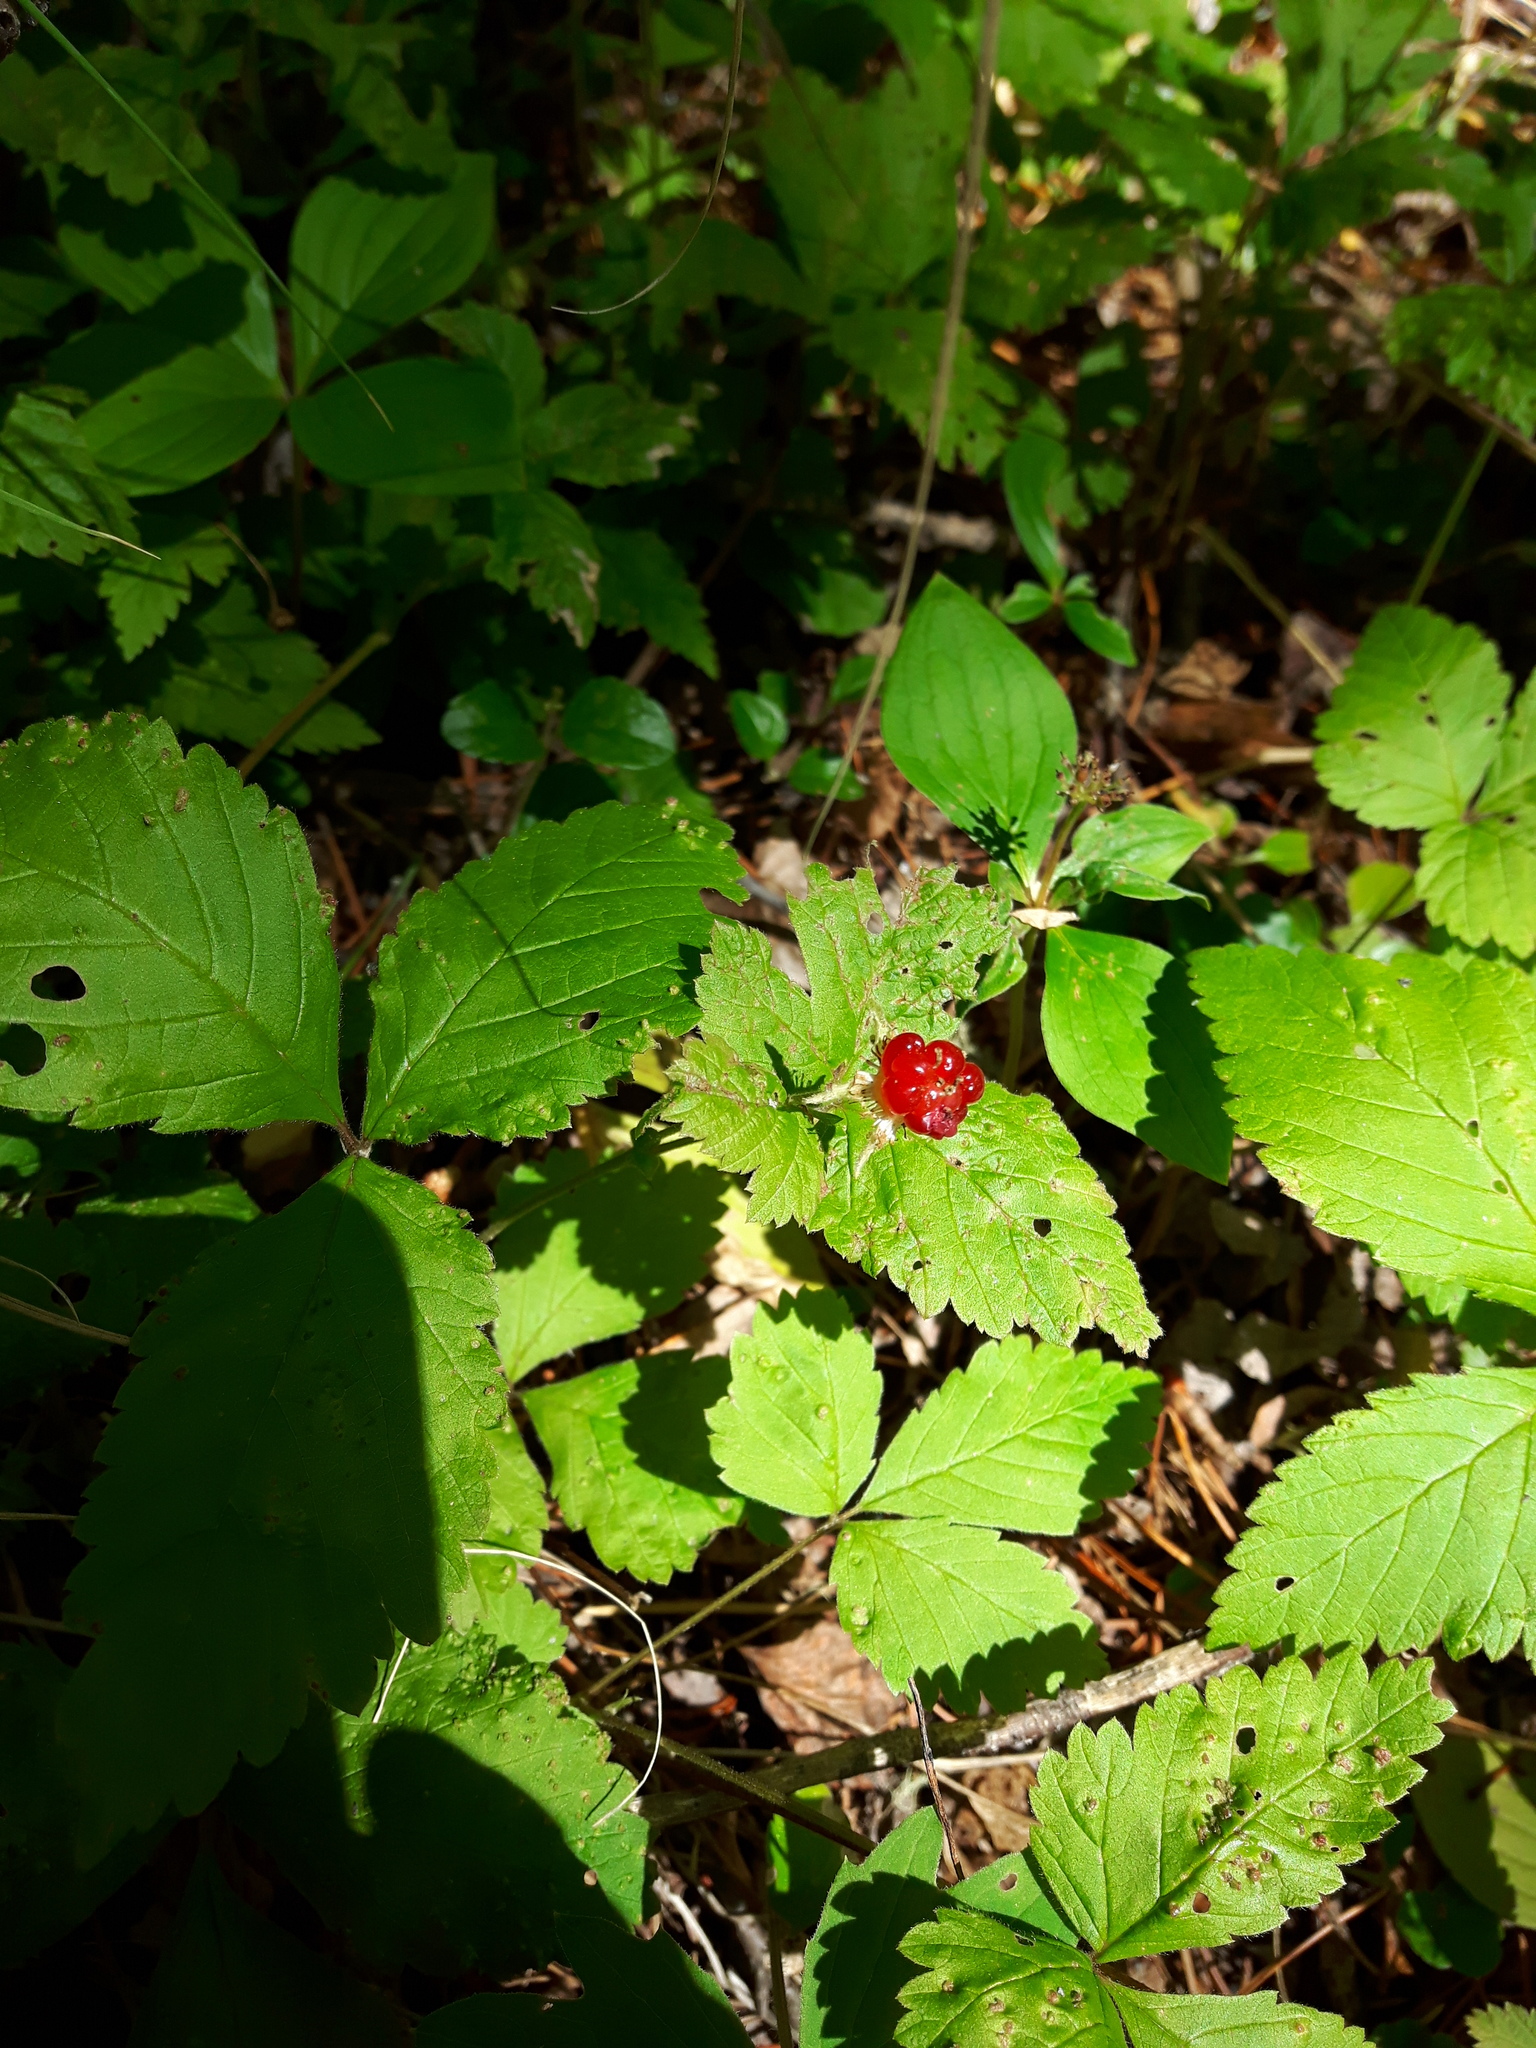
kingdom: Plantae
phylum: Tracheophyta
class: Magnoliopsida
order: Rosales
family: Rosaceae
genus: Rubus
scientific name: Rubus pubescens
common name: Dwarf raspberry
